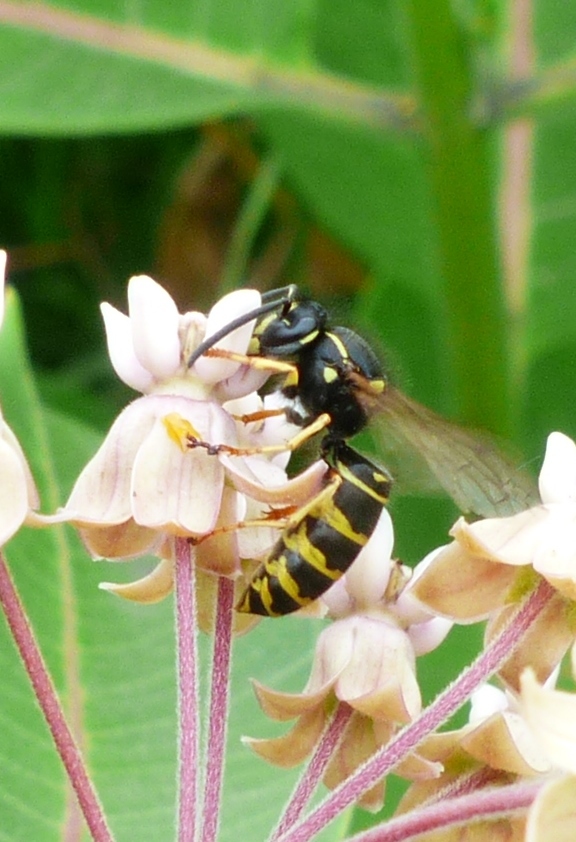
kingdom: Animalia
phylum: Arthropoda
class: Insecta
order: Hymenoptera
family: Vespidae
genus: Vespula
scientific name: Vespula acadica
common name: Forest yellowjacket
